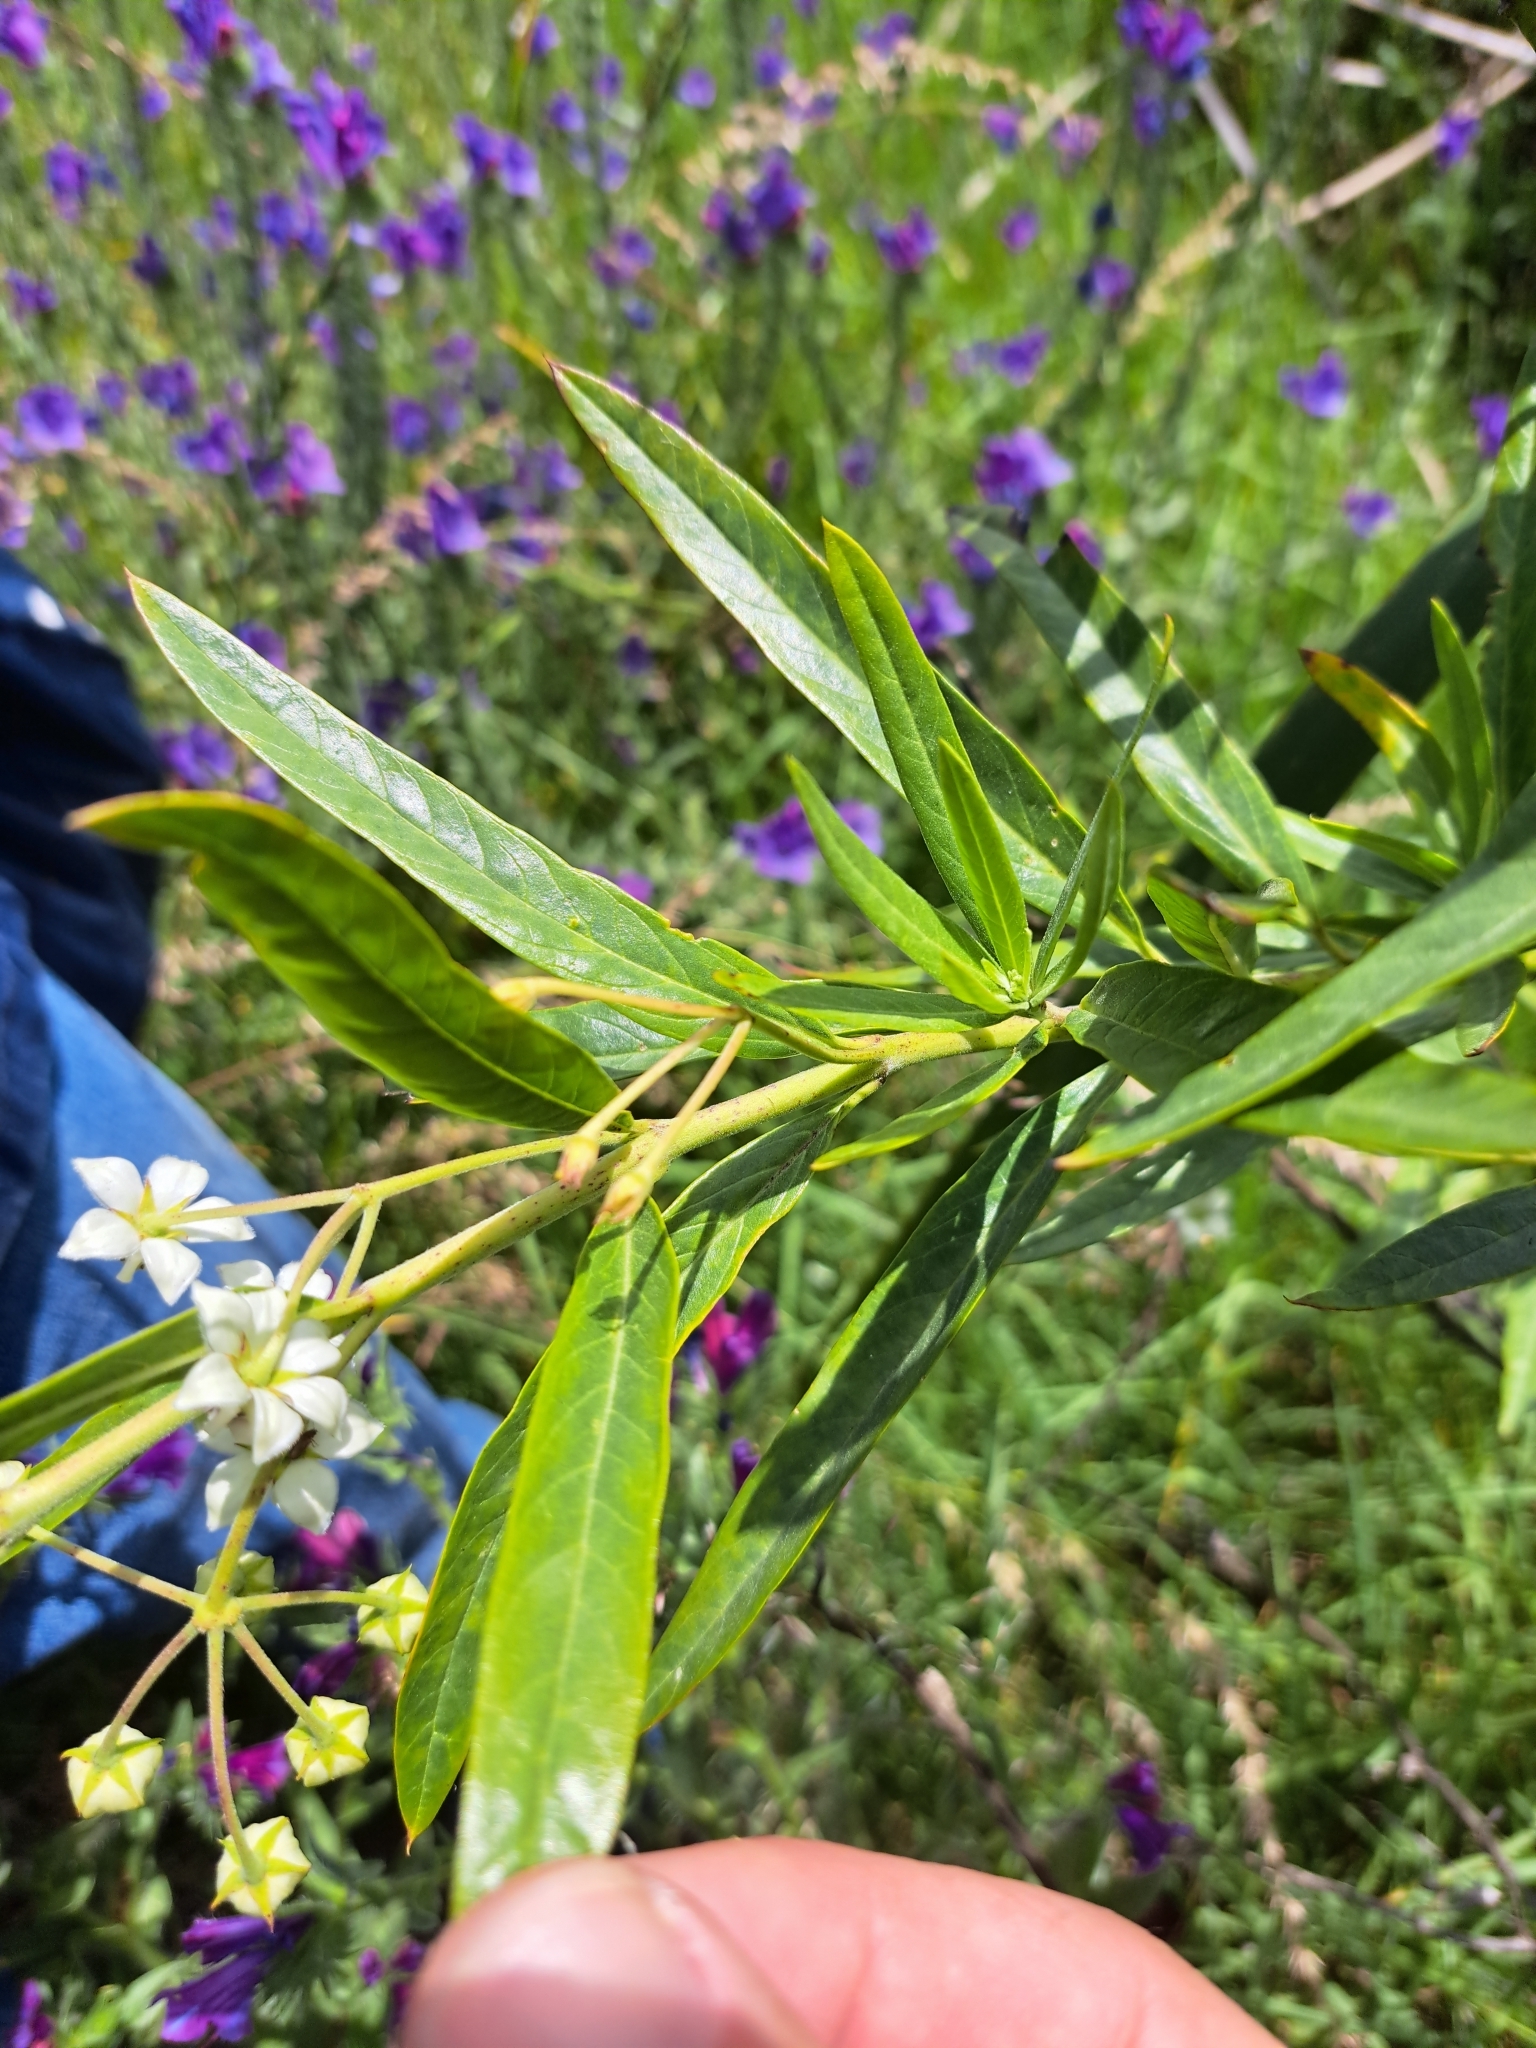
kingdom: Plantae
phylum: Tracheophyta
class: Magnoliopsida
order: Gentianales
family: Apocynaceae
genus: Gomphocarpus
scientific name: Gomphocarpus physocarpus
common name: Balloon cotton bush
